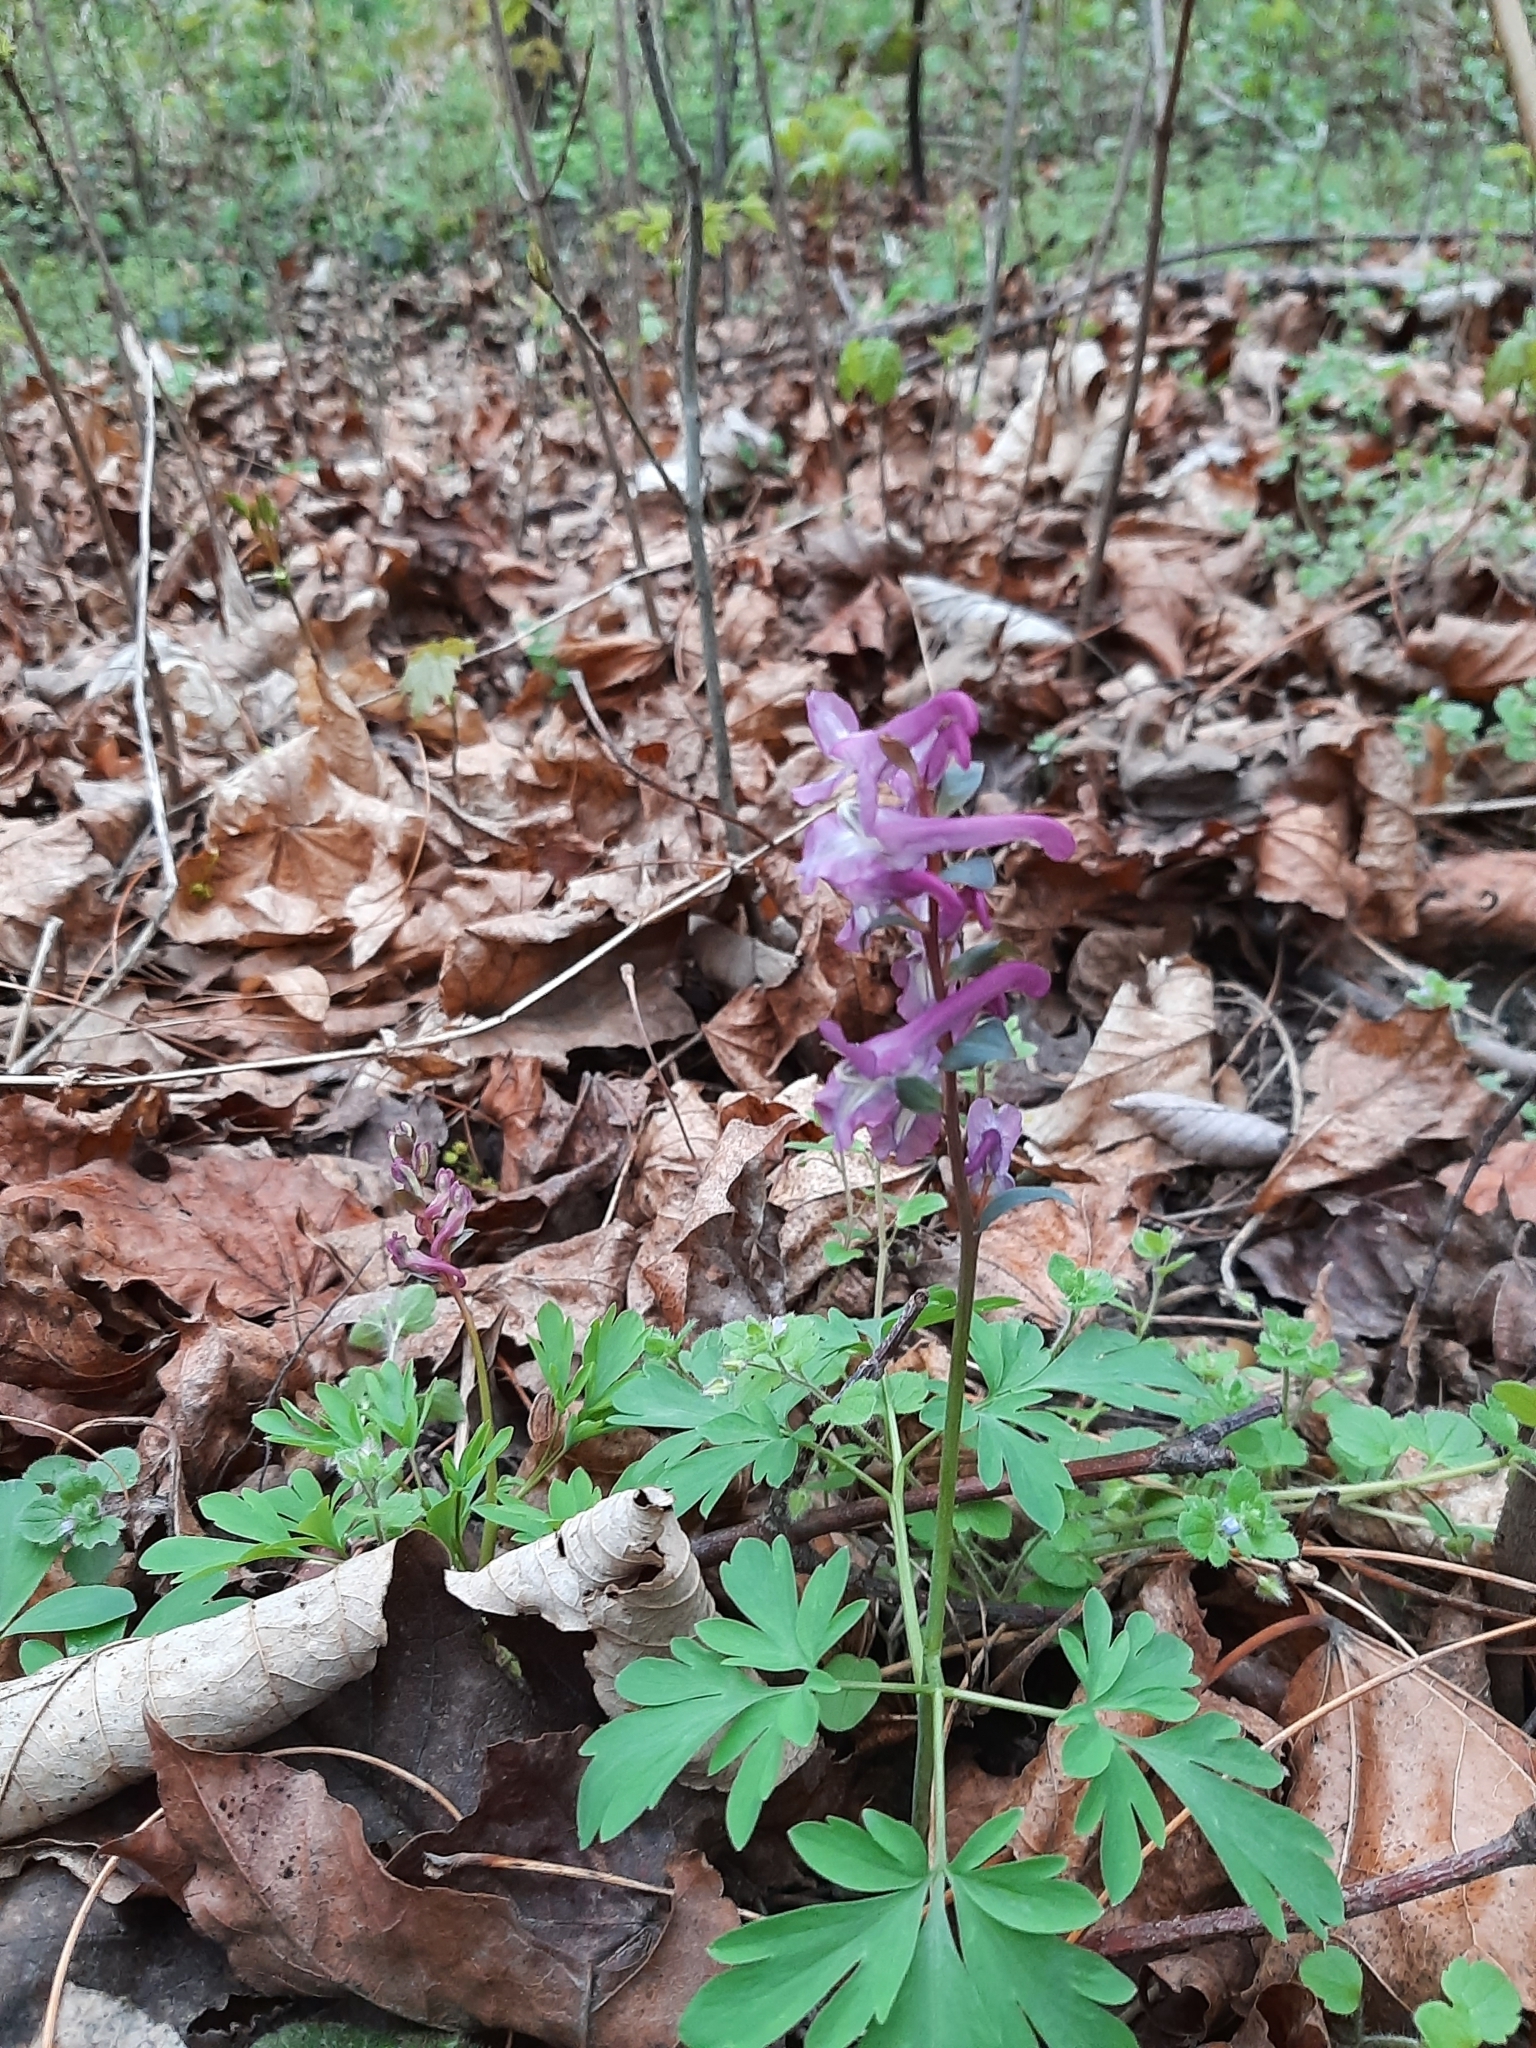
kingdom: Plantae
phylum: Tracheophyta
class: Magnoliopsida
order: Ranunculales
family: Papaveraceae
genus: Corydalis
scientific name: Corydalis cava
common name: Hollowroot
